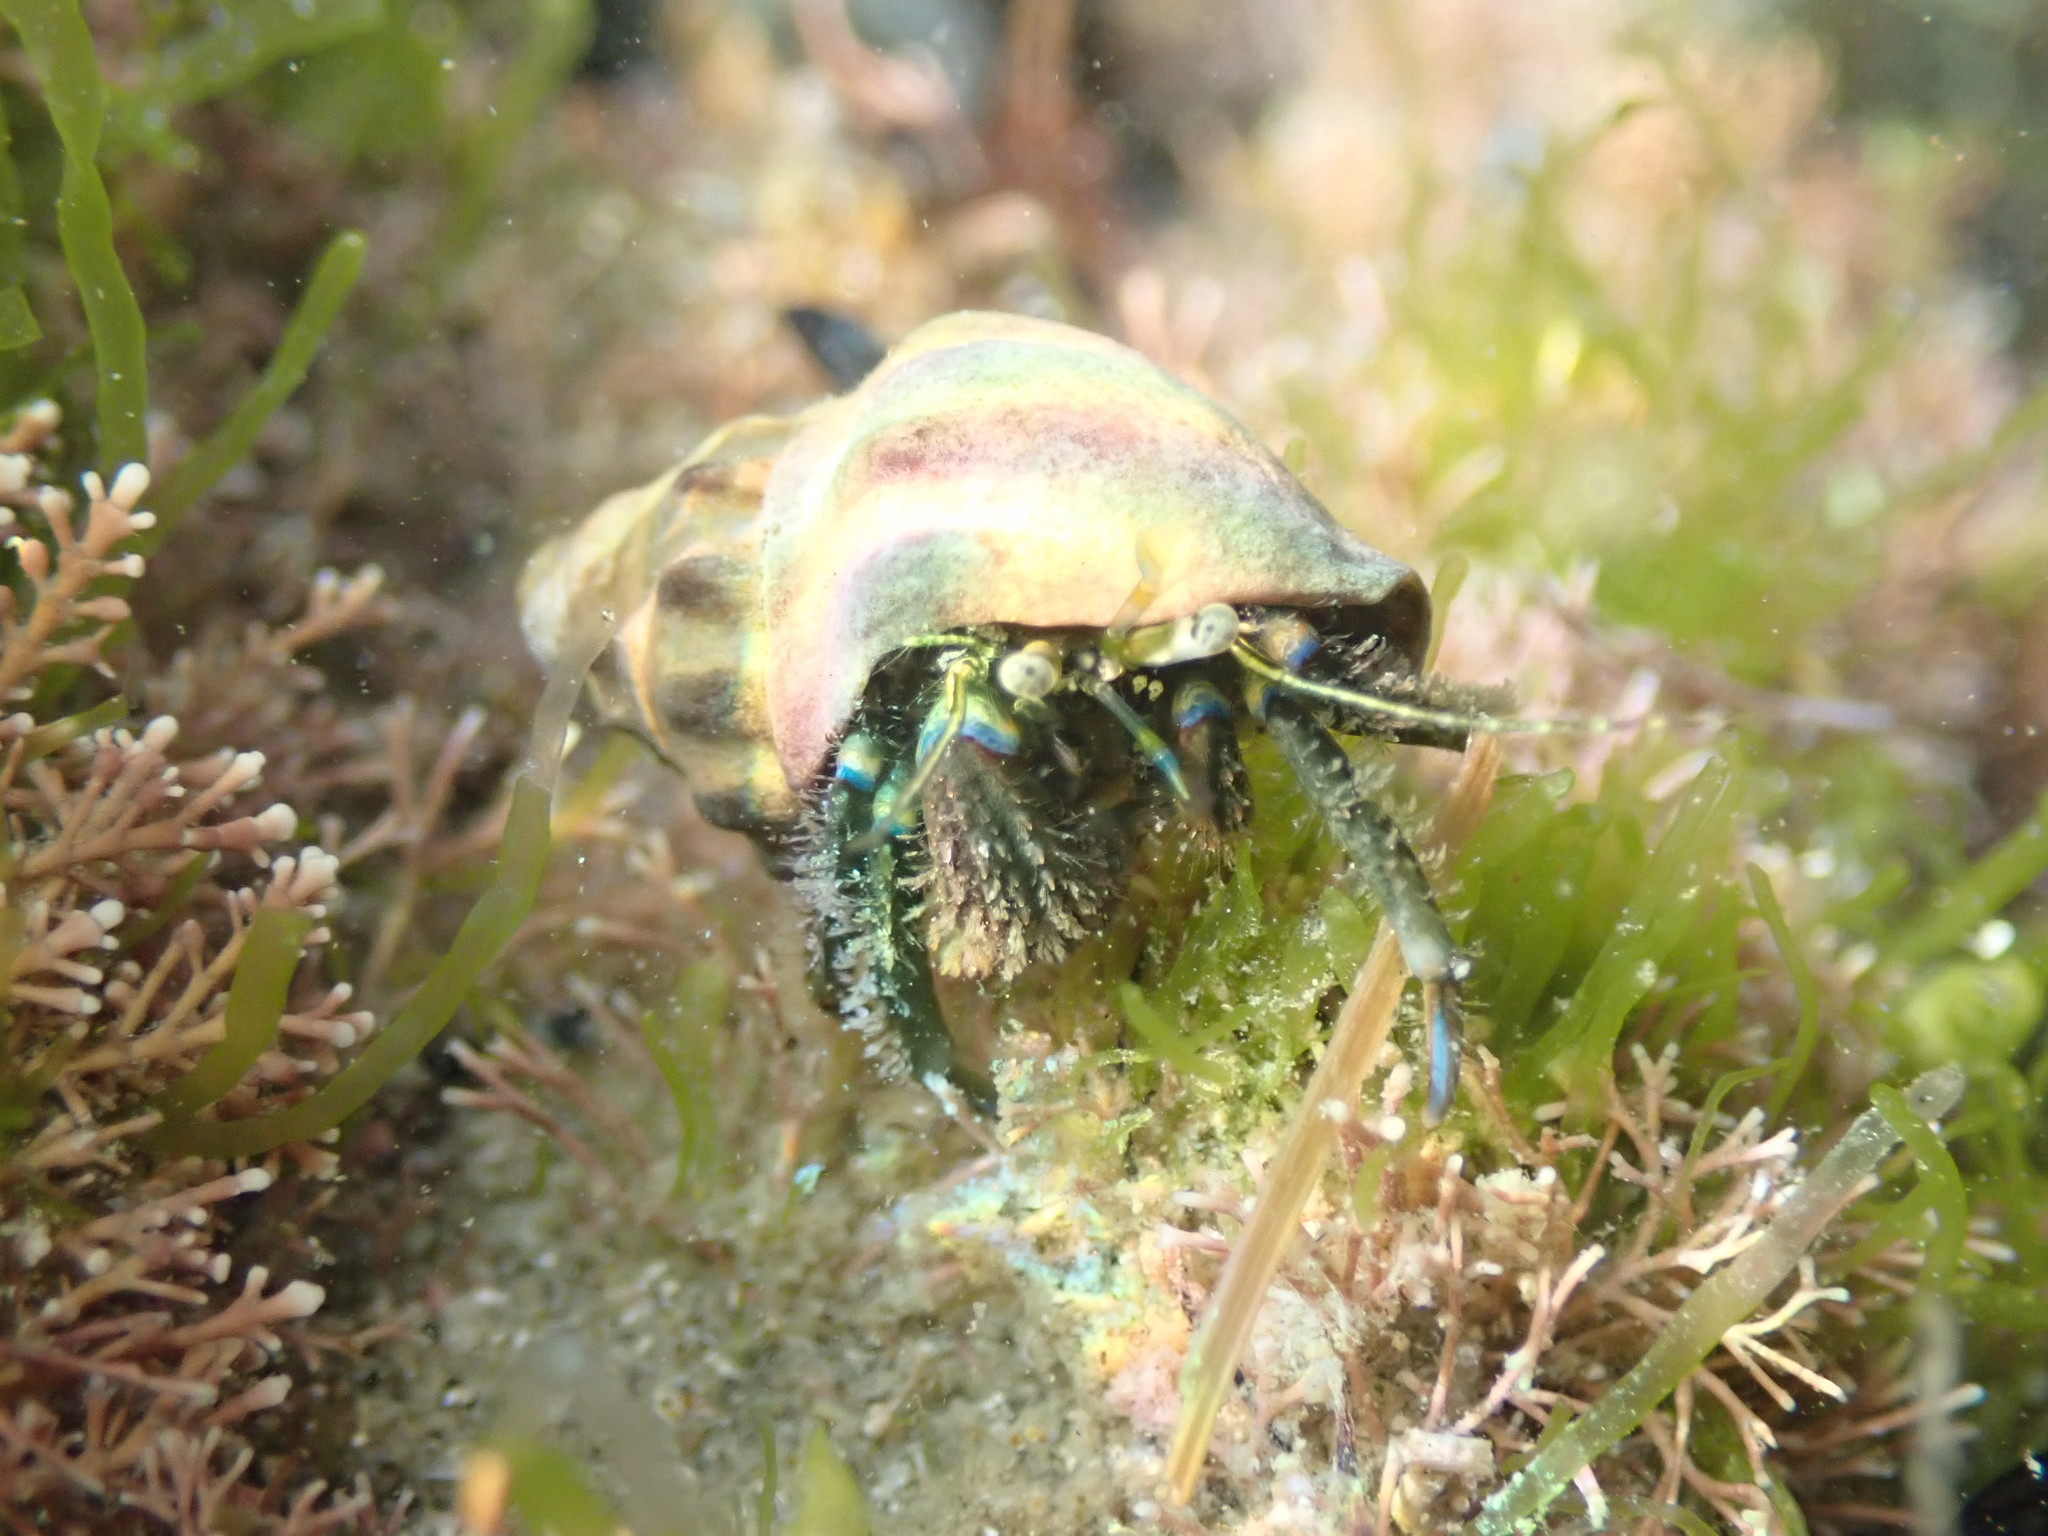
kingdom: Animalia
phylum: Arthropoda
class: Malacostraca
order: Decapoda
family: Paguridae
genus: Pagurus
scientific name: Pagurus novizealandiae
